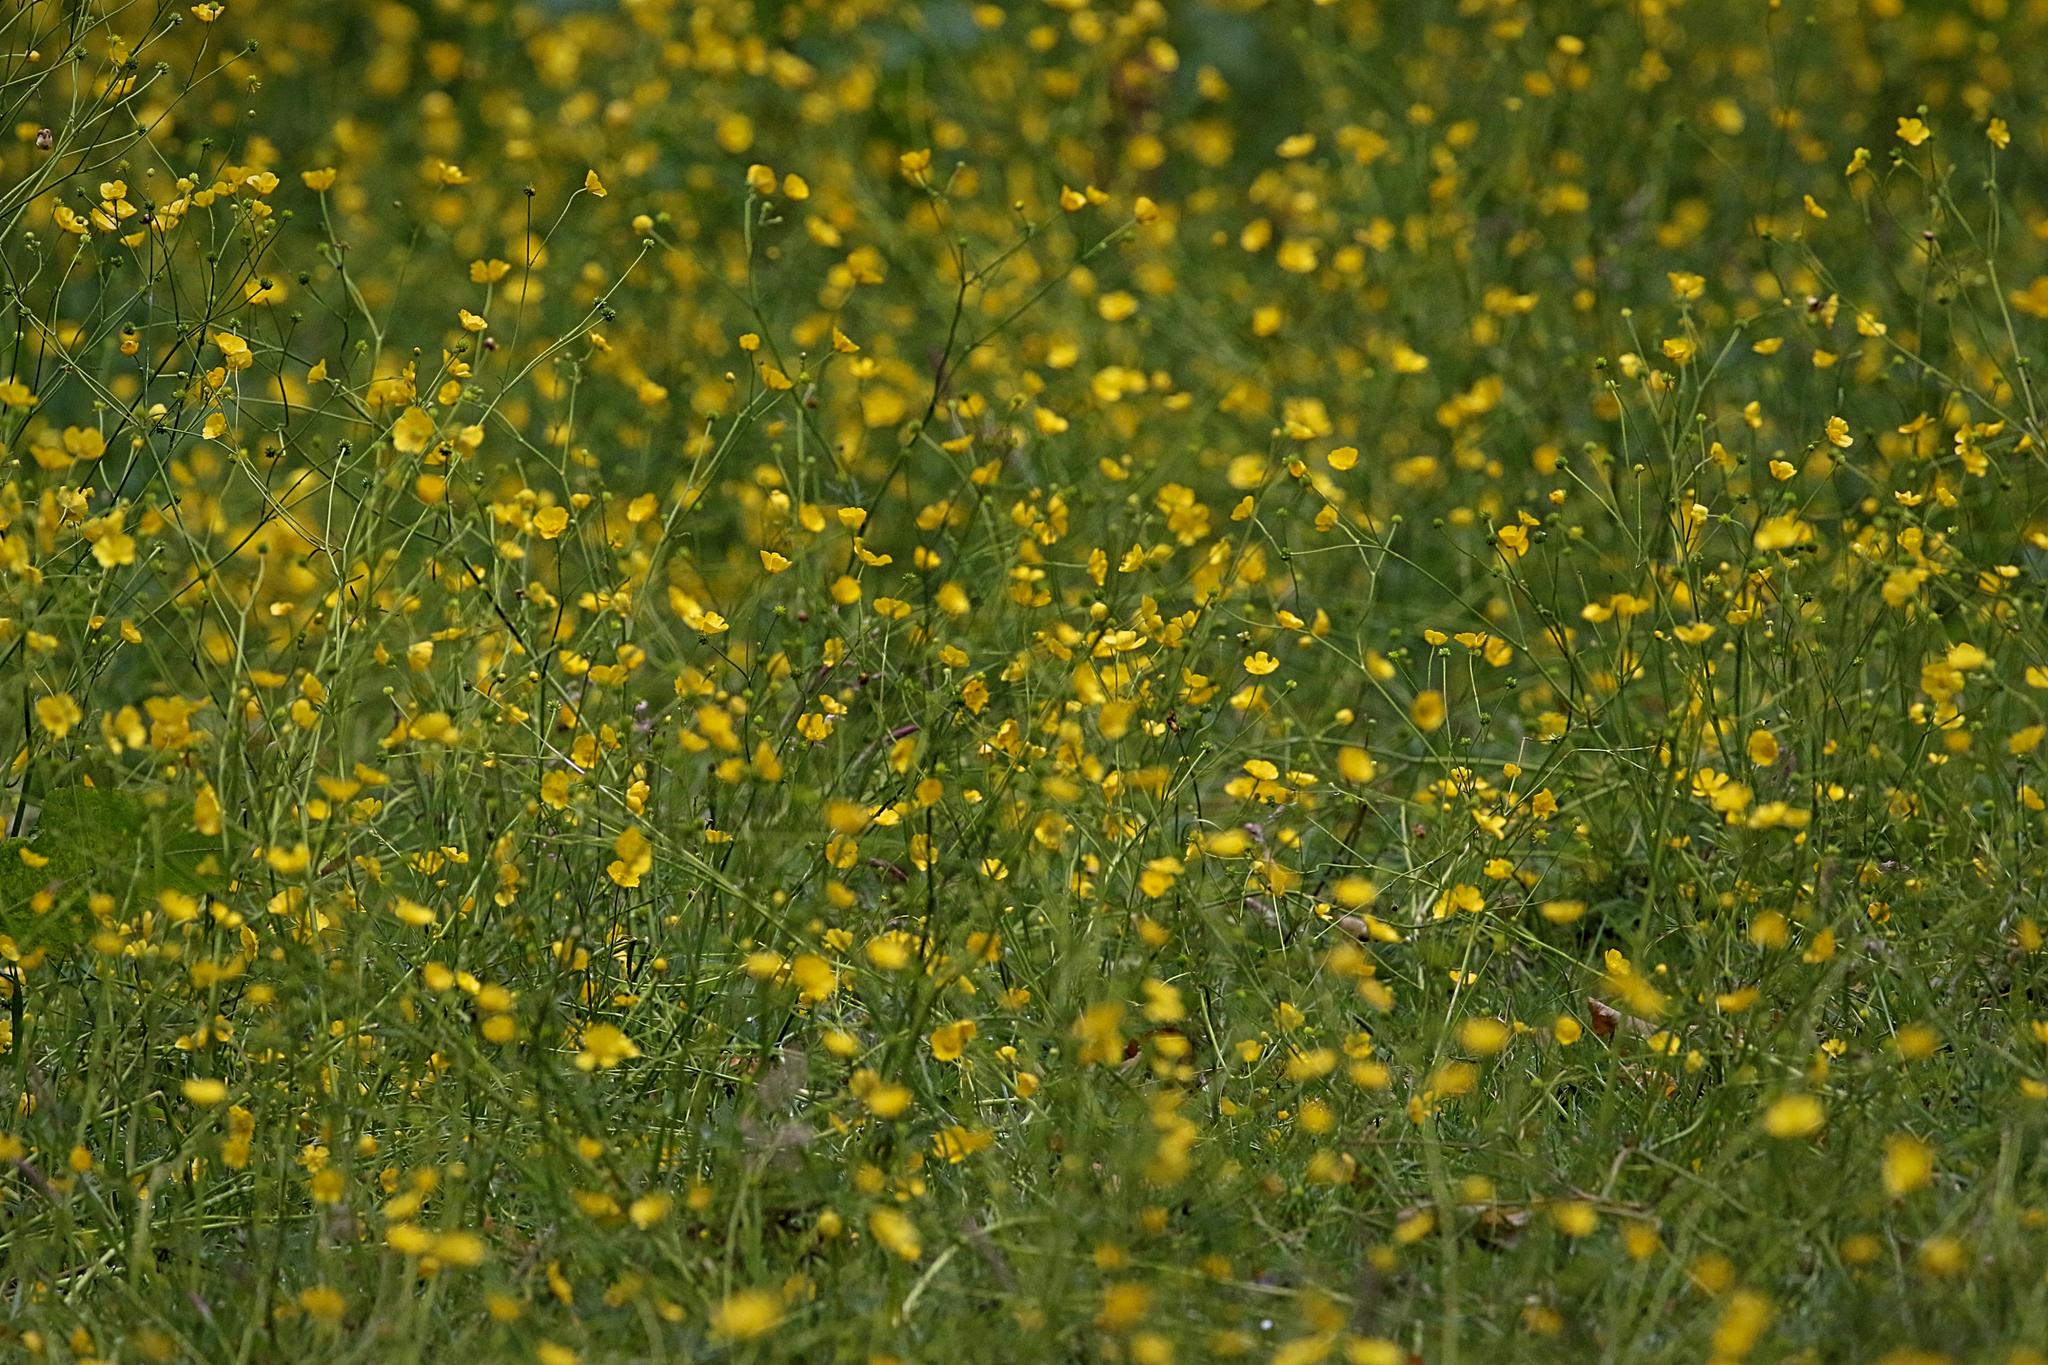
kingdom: Plantae
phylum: Tracheophyta
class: Magnoliopsida
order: Ranunculales
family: Ranunculaceae
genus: Ranunculus
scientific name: Ranunculus acris
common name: Meadow buttercup
